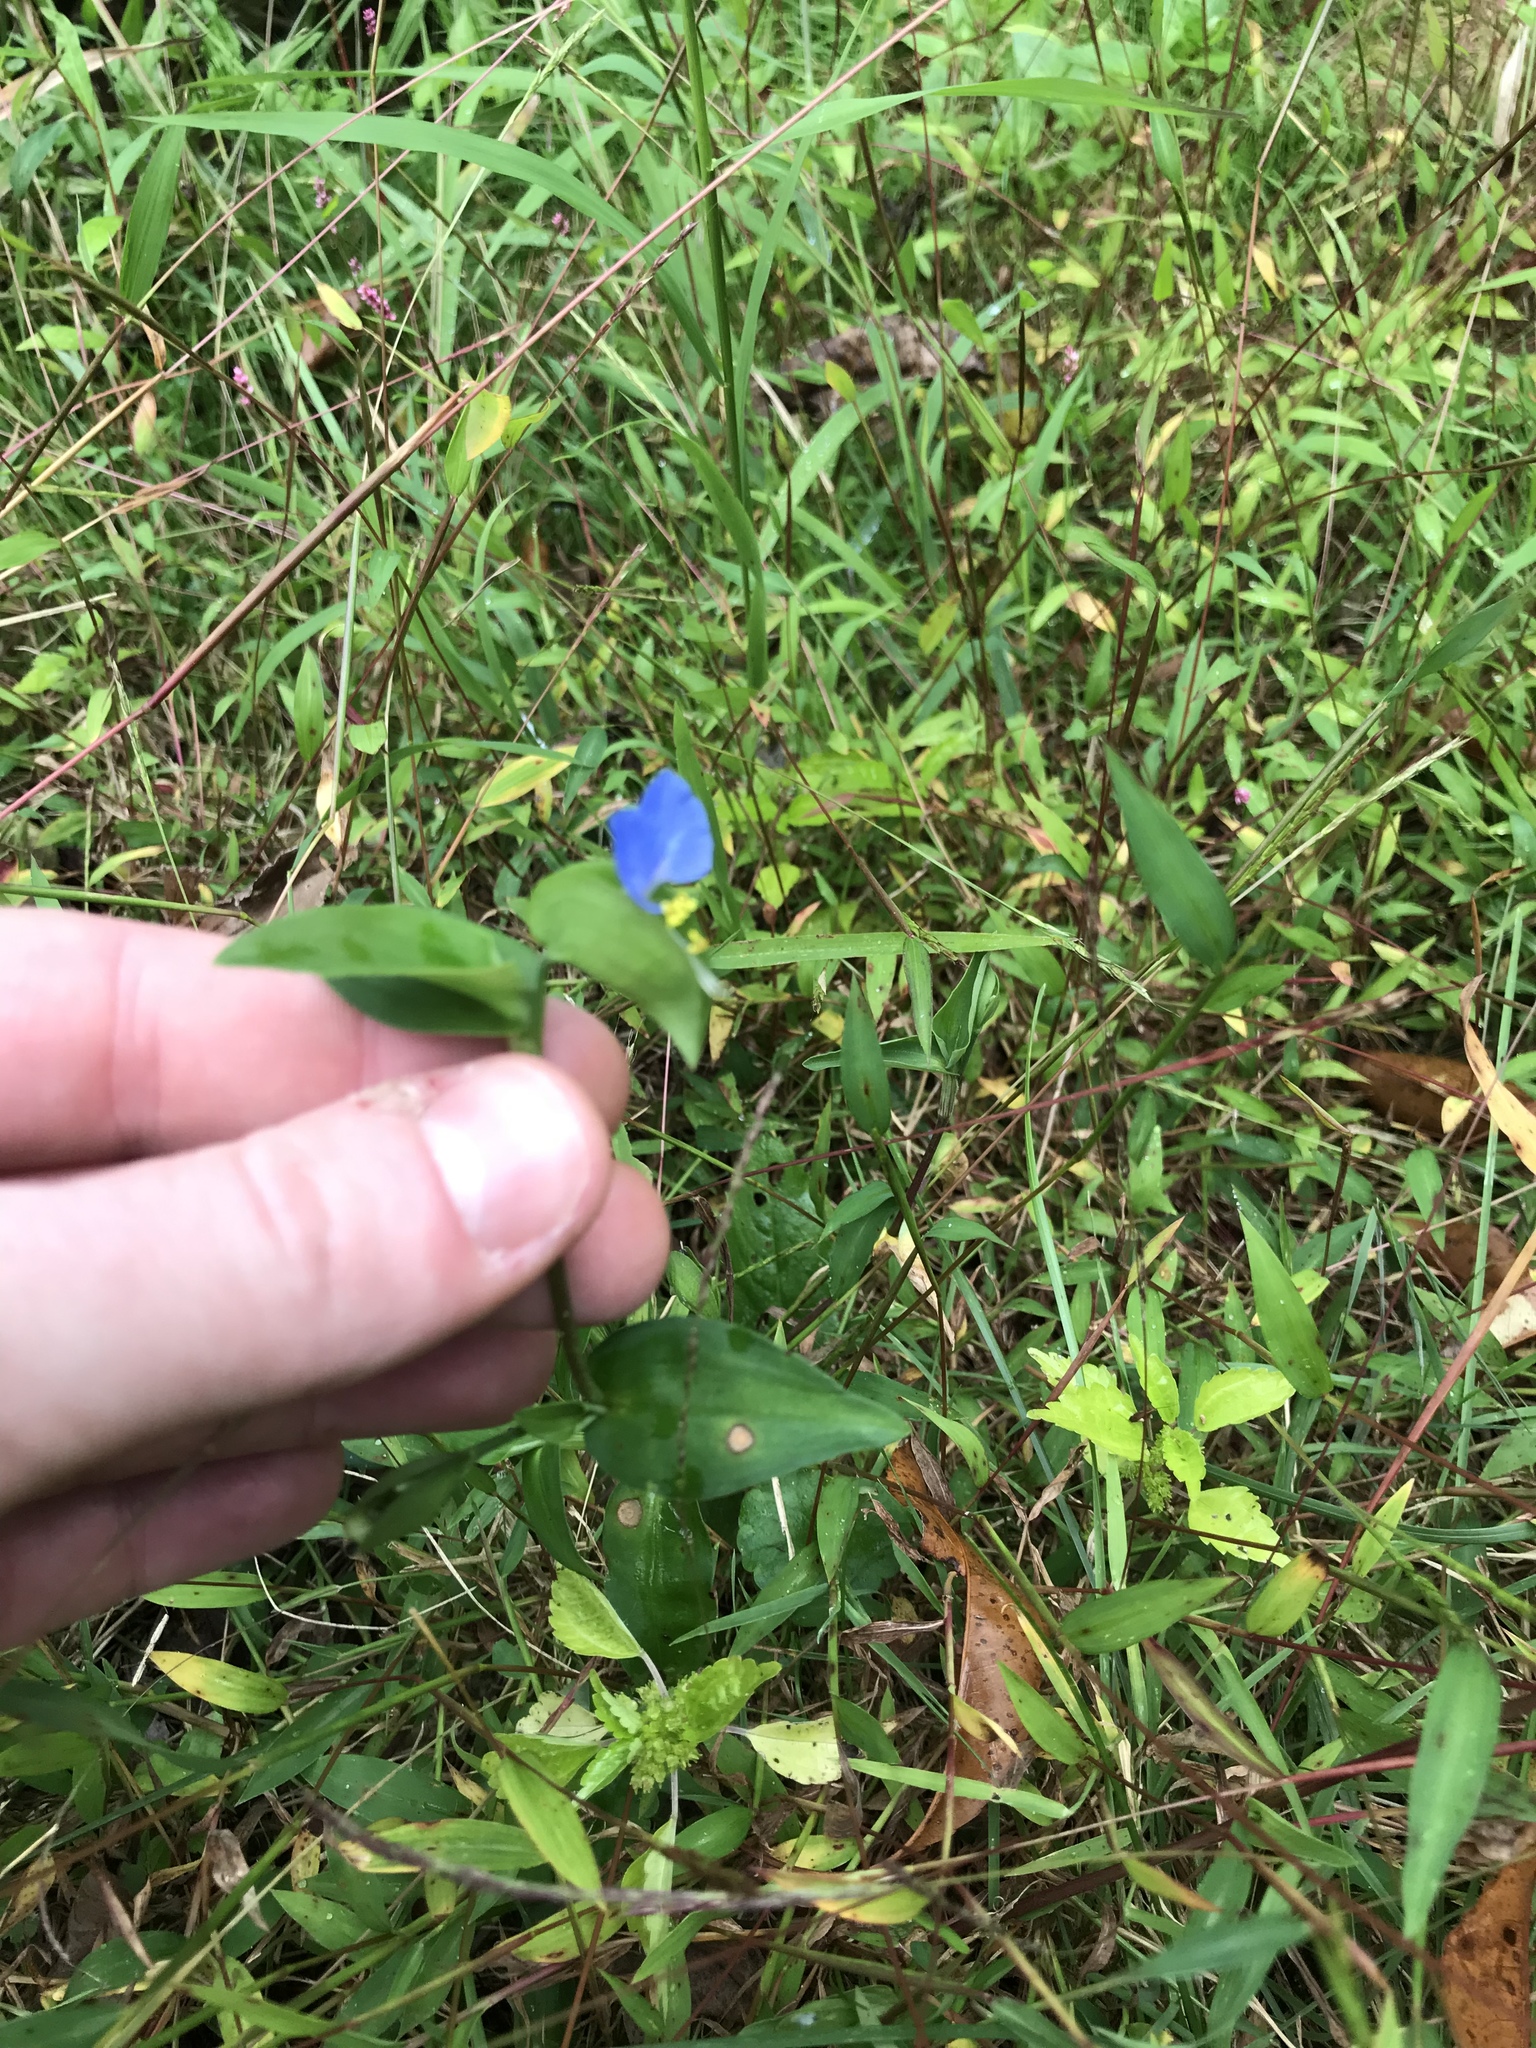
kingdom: Plantae
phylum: Tracheophyta
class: Liliopsida
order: Commelinales
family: Commelinaceae
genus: Commelina
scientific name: Commelina communis
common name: Asiatic dayflower
